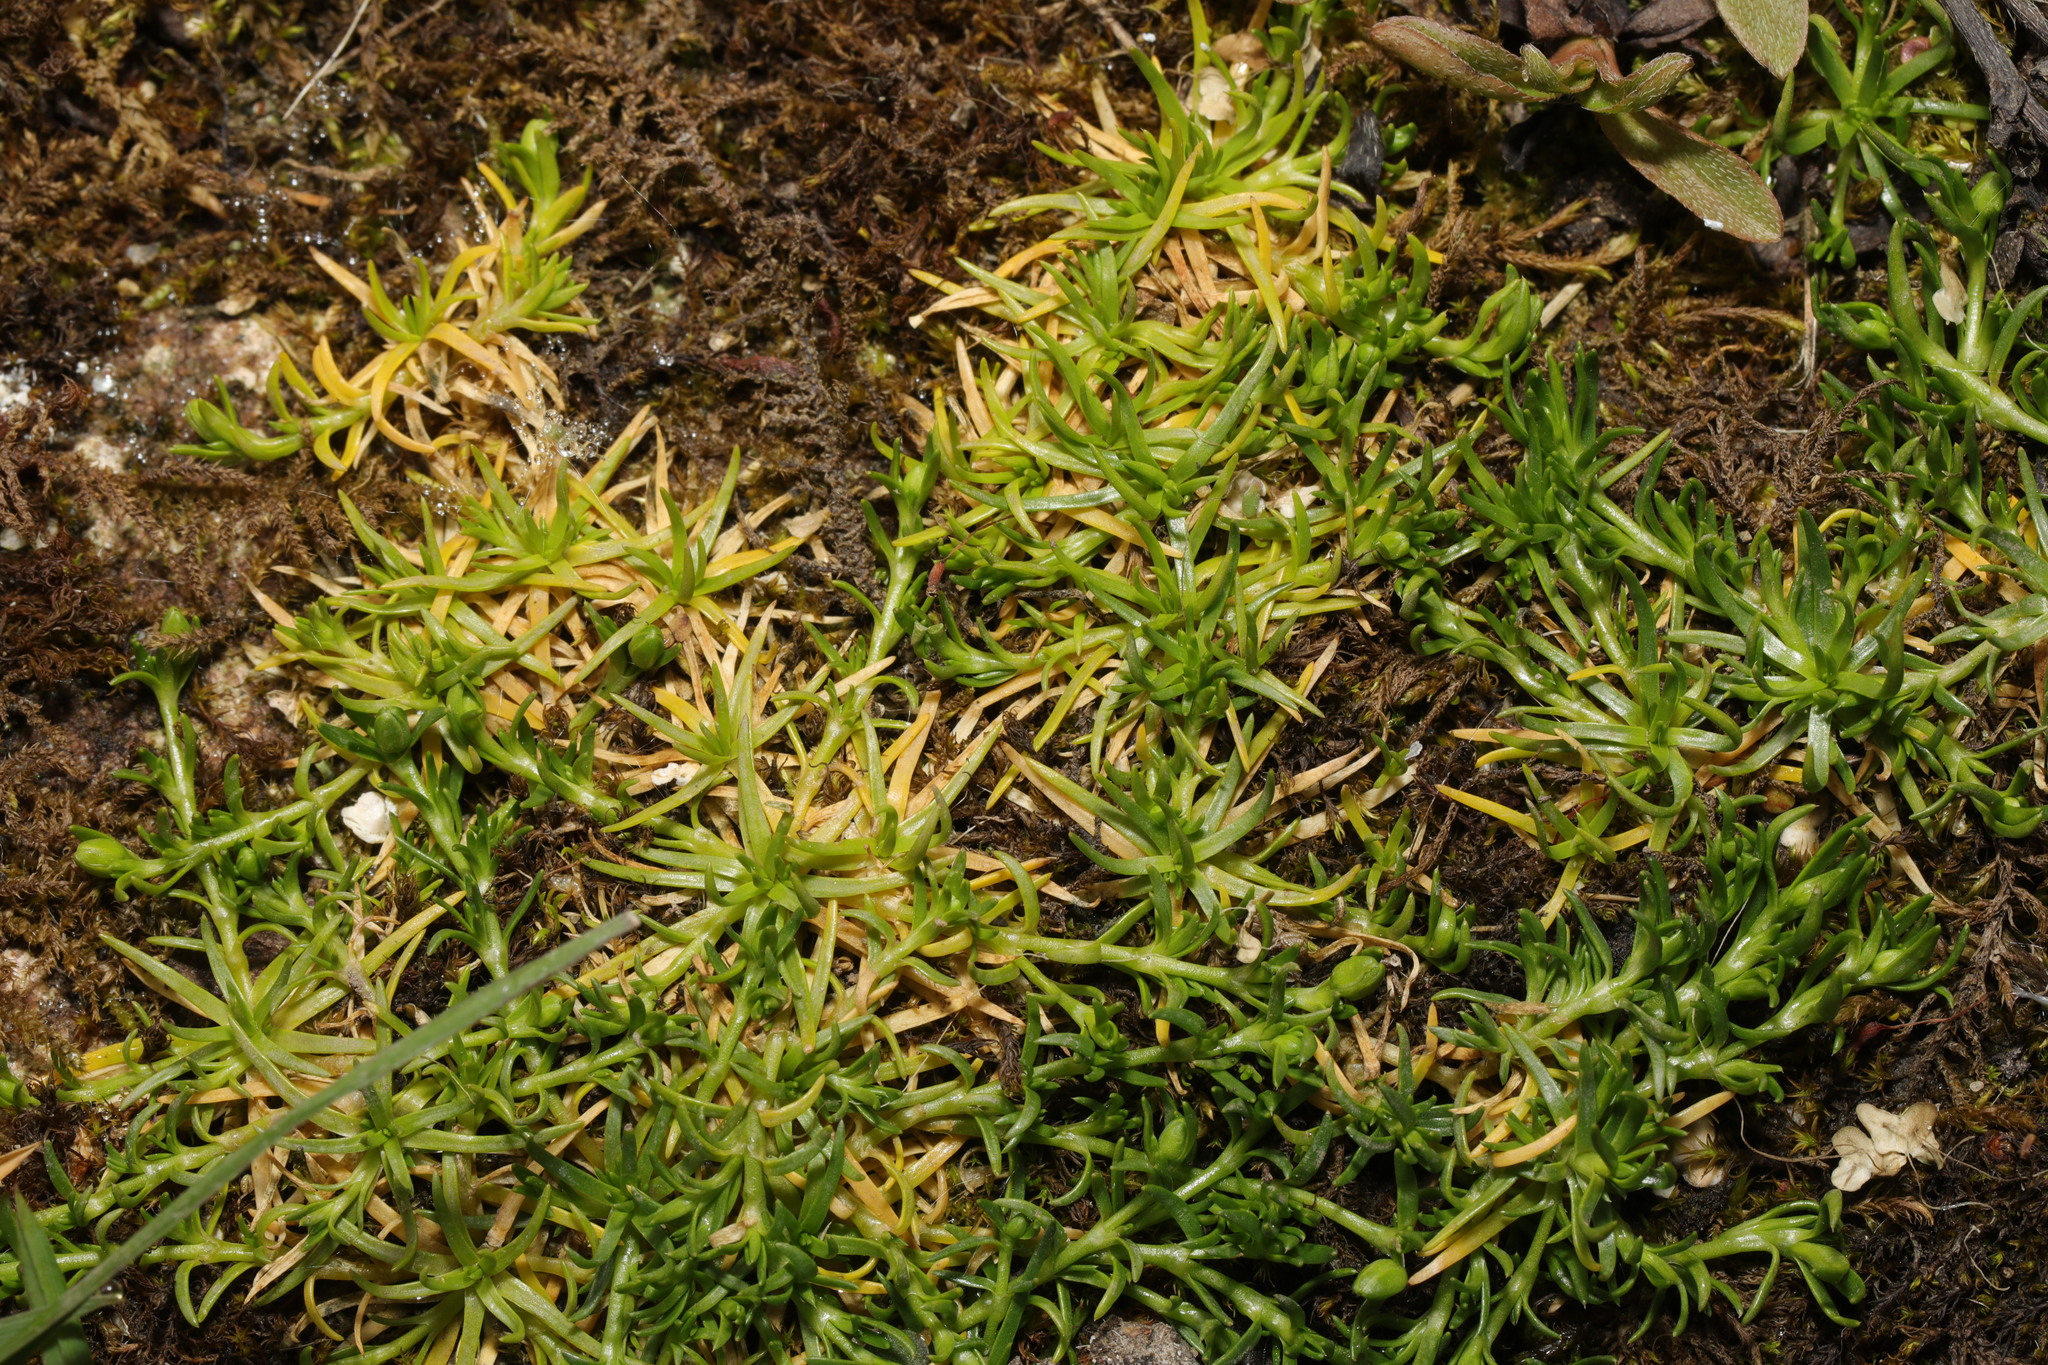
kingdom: Plantae
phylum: Tracheophyta
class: Magnoliopsida
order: Caryophyllales
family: Caryophyllaceae
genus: Sagina
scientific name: Sagina procumbens
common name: Procumbent pearlwort
